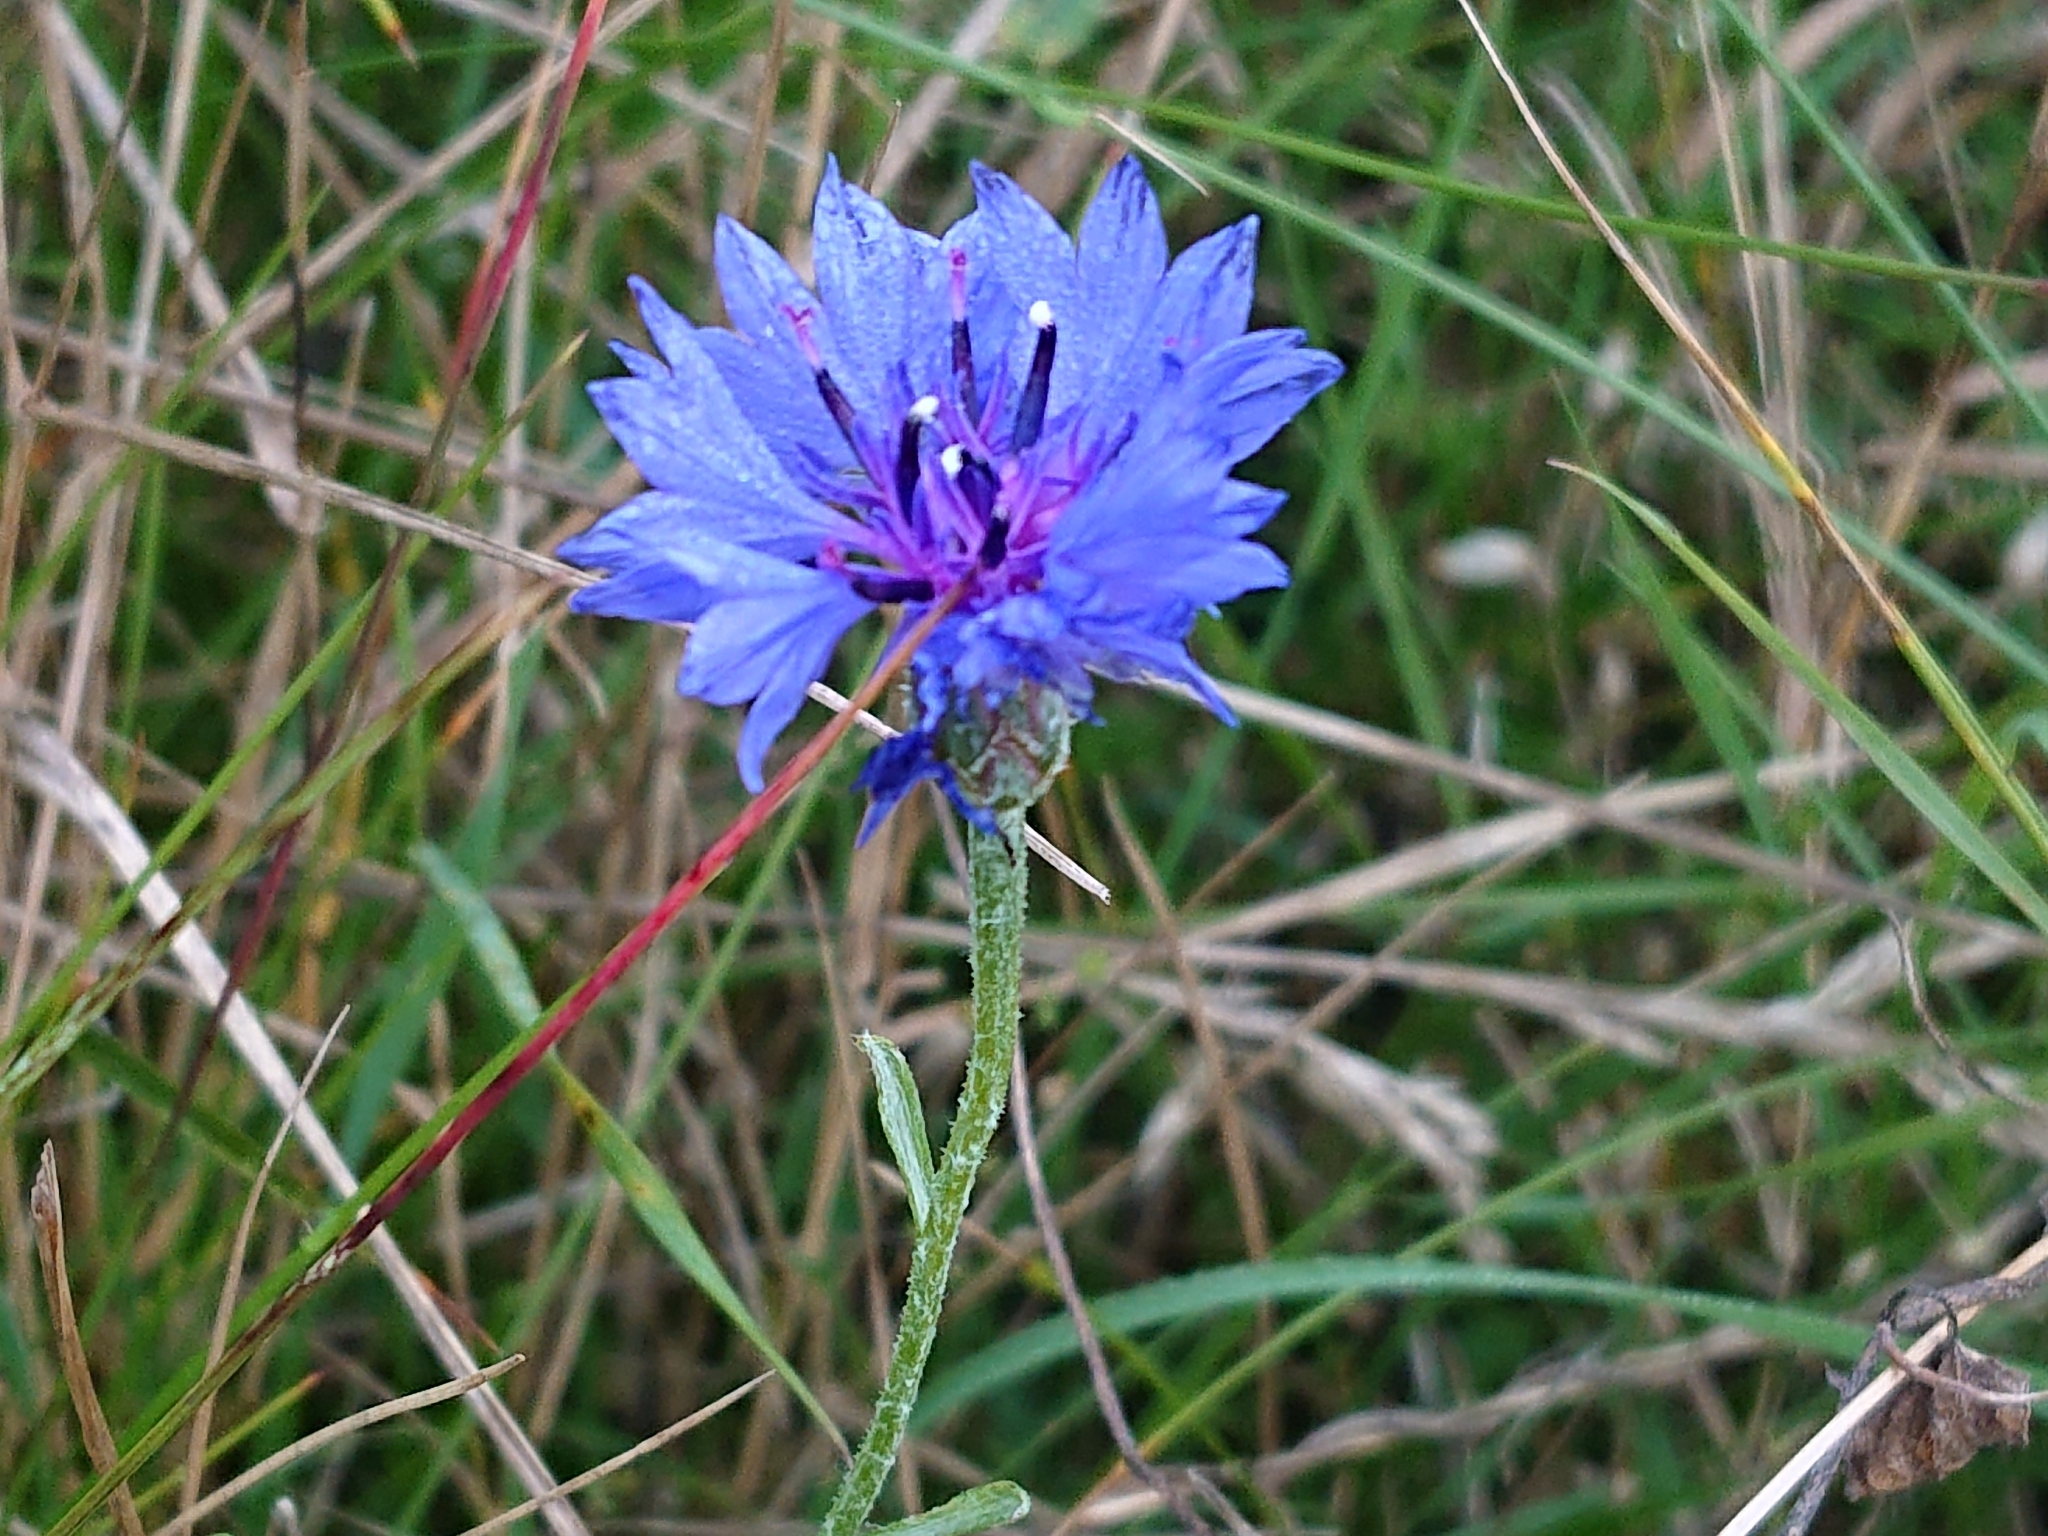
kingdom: Plantae
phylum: Tracheophyta
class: Magnoliopsida
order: Asterales
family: Asteraceae
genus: Centaurea
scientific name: Centaurea cyanus
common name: Cornflower
